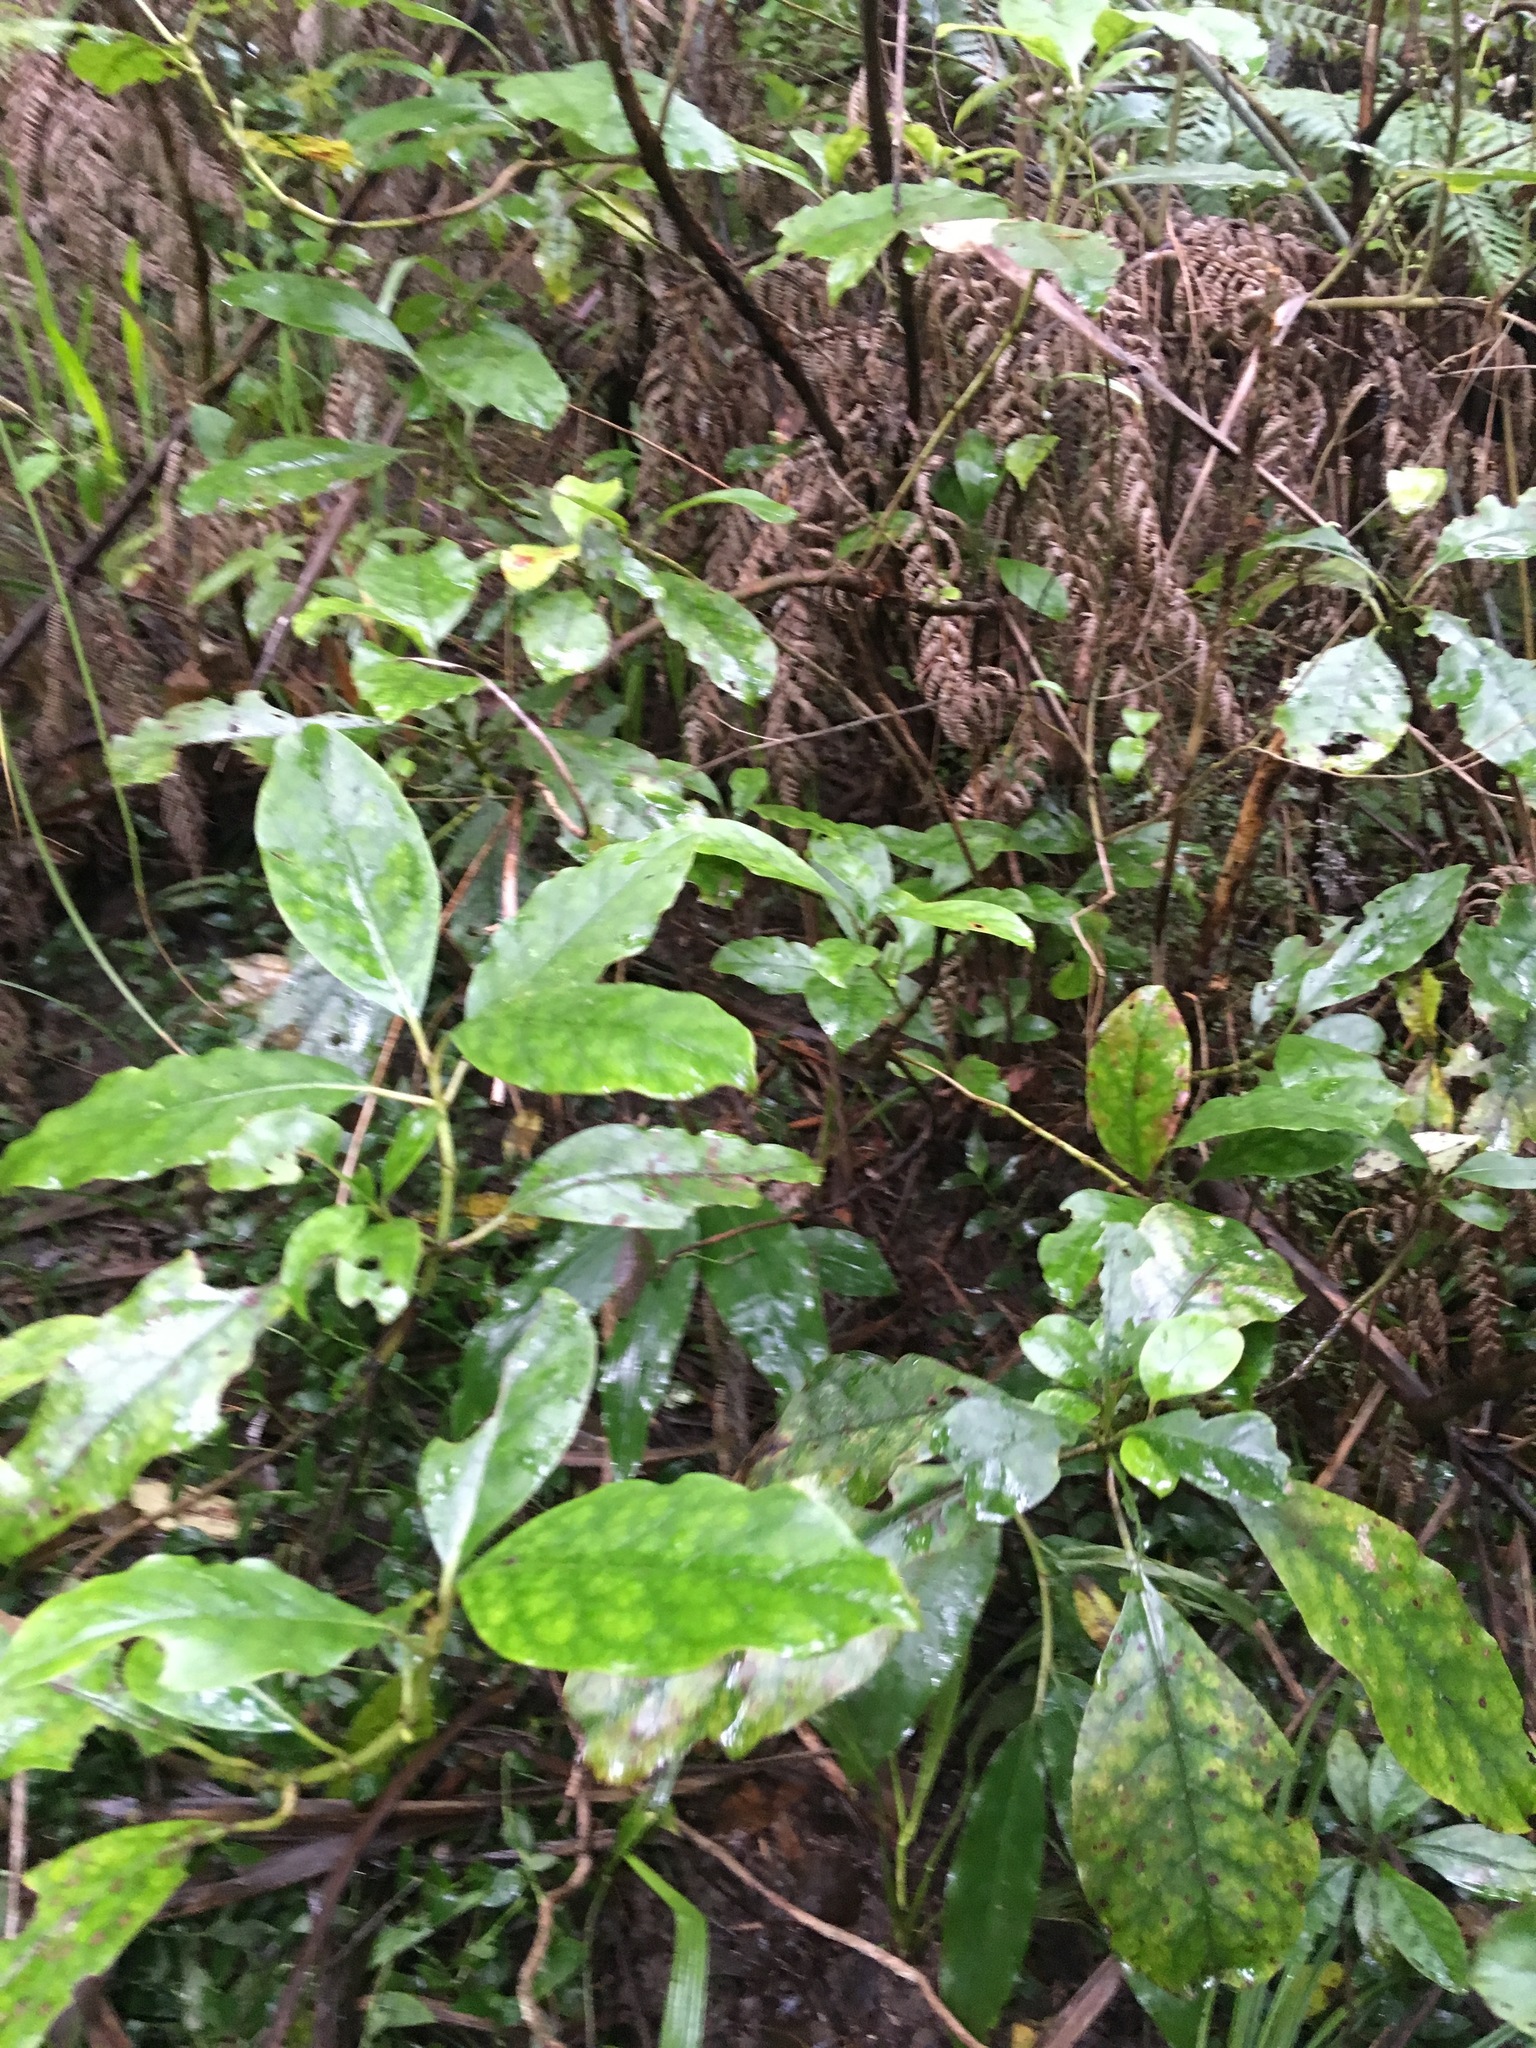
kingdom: Plantae
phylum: Tracheophyta
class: Magnoliopsida
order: Gentianales
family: Rubiaceae
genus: Coprosma
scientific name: Coprosma autumnalis
